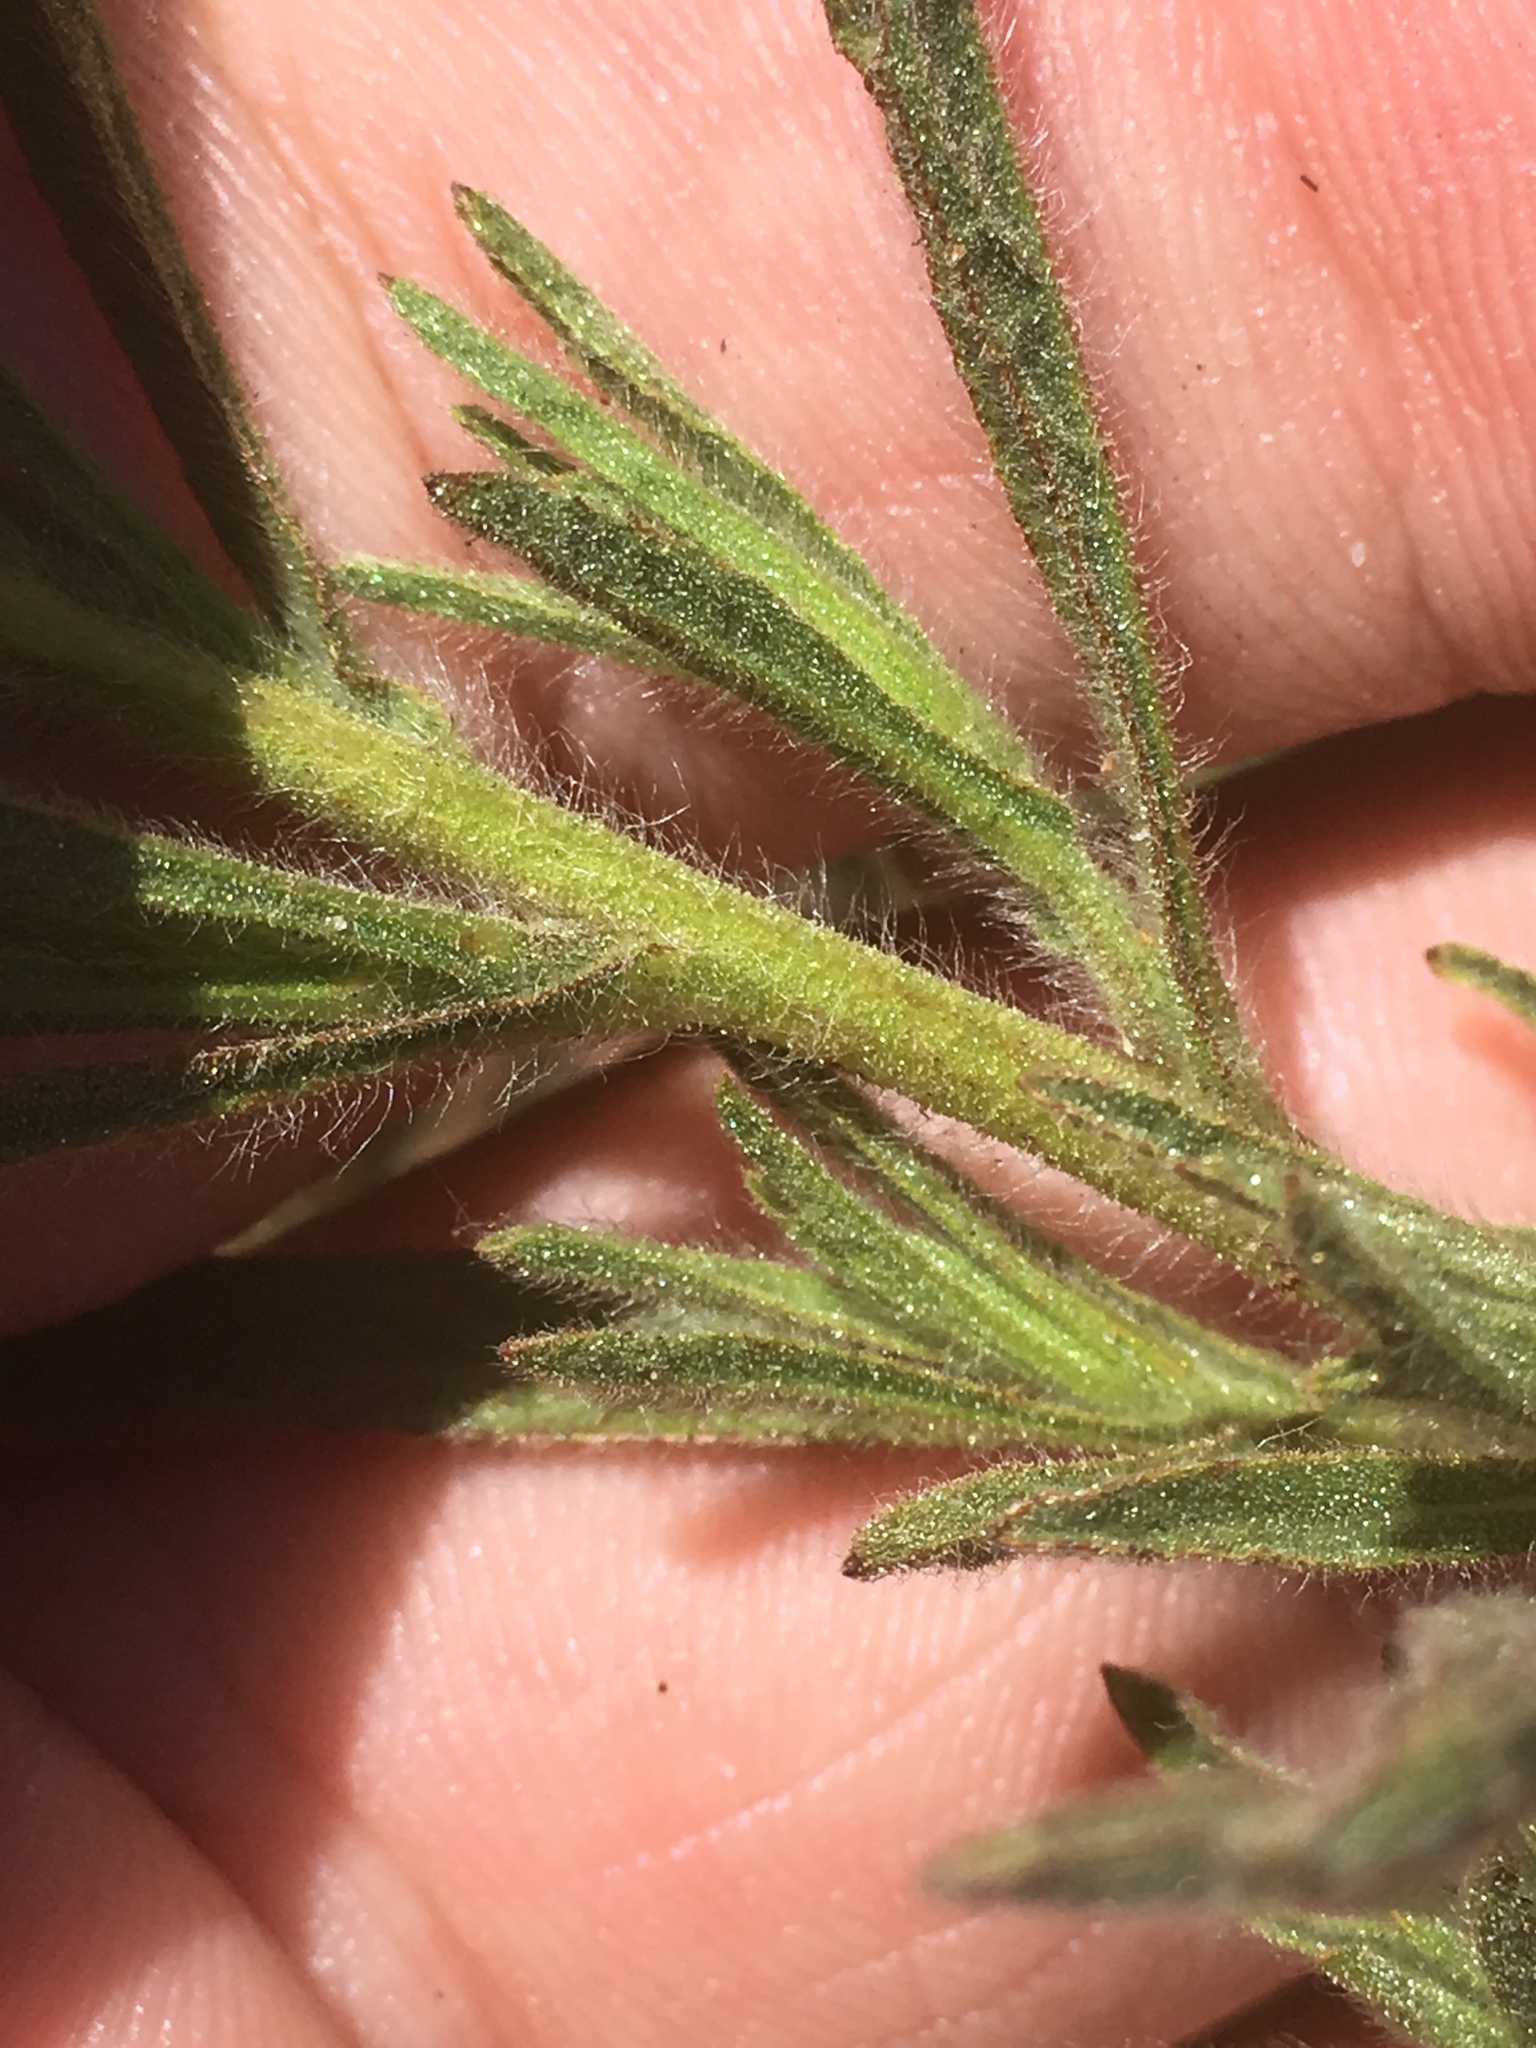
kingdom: Plantae
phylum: Tracheophyta
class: Magnoliopsida
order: Asterales
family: Asteraceae
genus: Dittrichia
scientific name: Dittrichia graveolens
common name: Stinking fleabane
